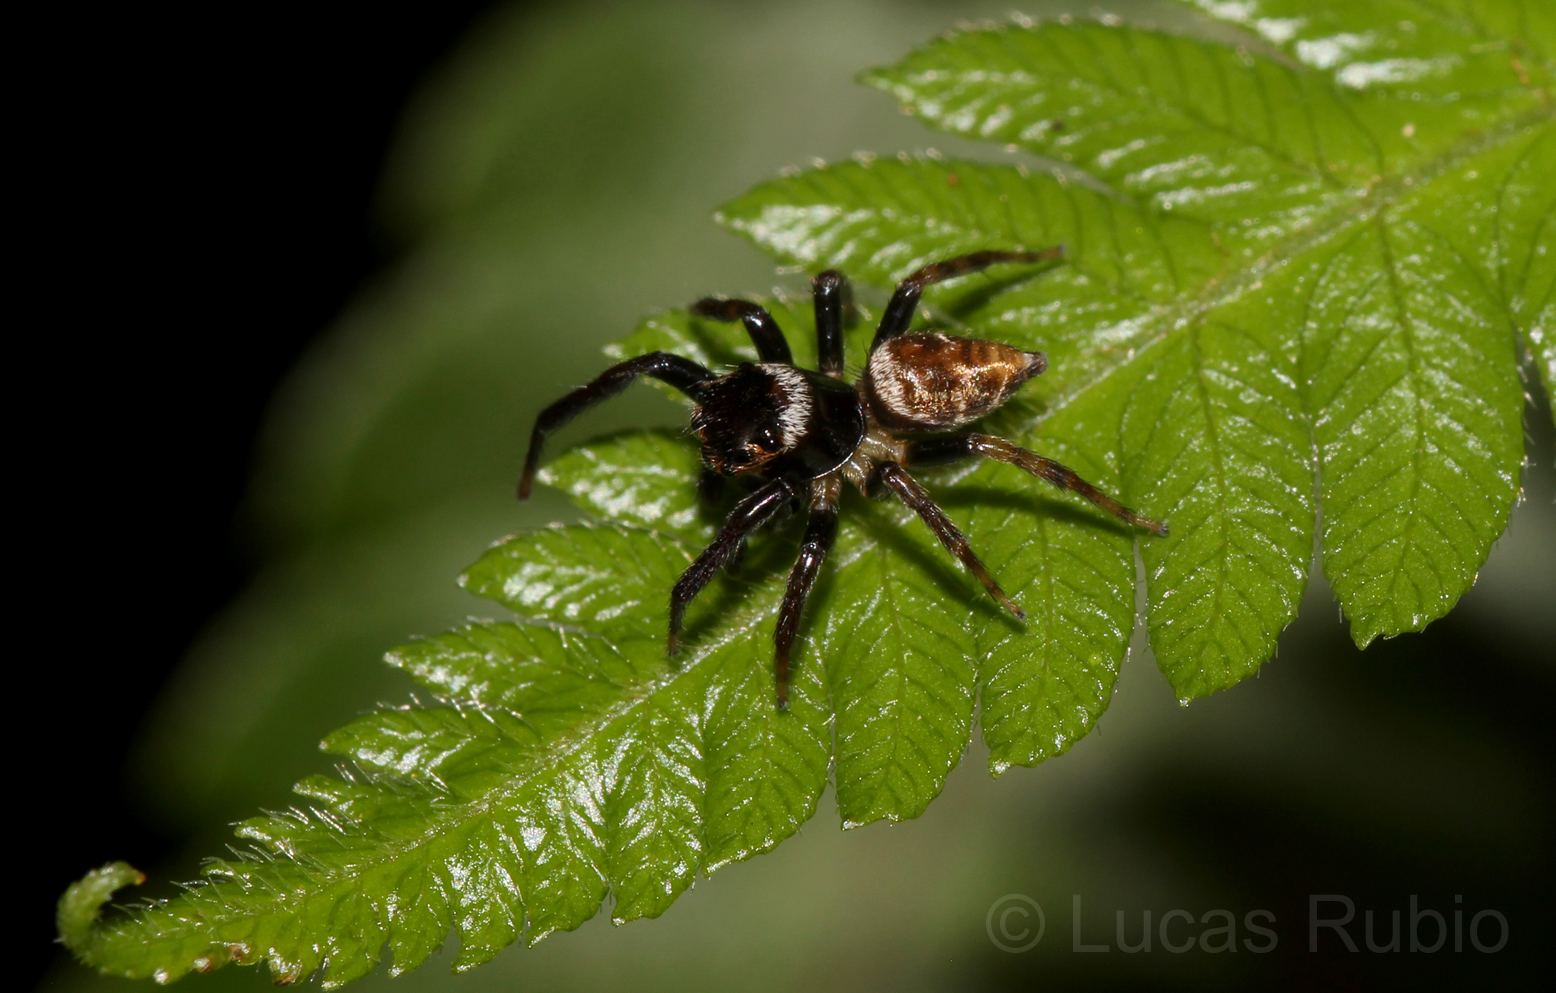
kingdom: Animalia
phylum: Arthropoda
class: Arachnida
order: Araneae
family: Salticidae
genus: Hasarius
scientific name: Hasarius adansoni
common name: Jumping spider
